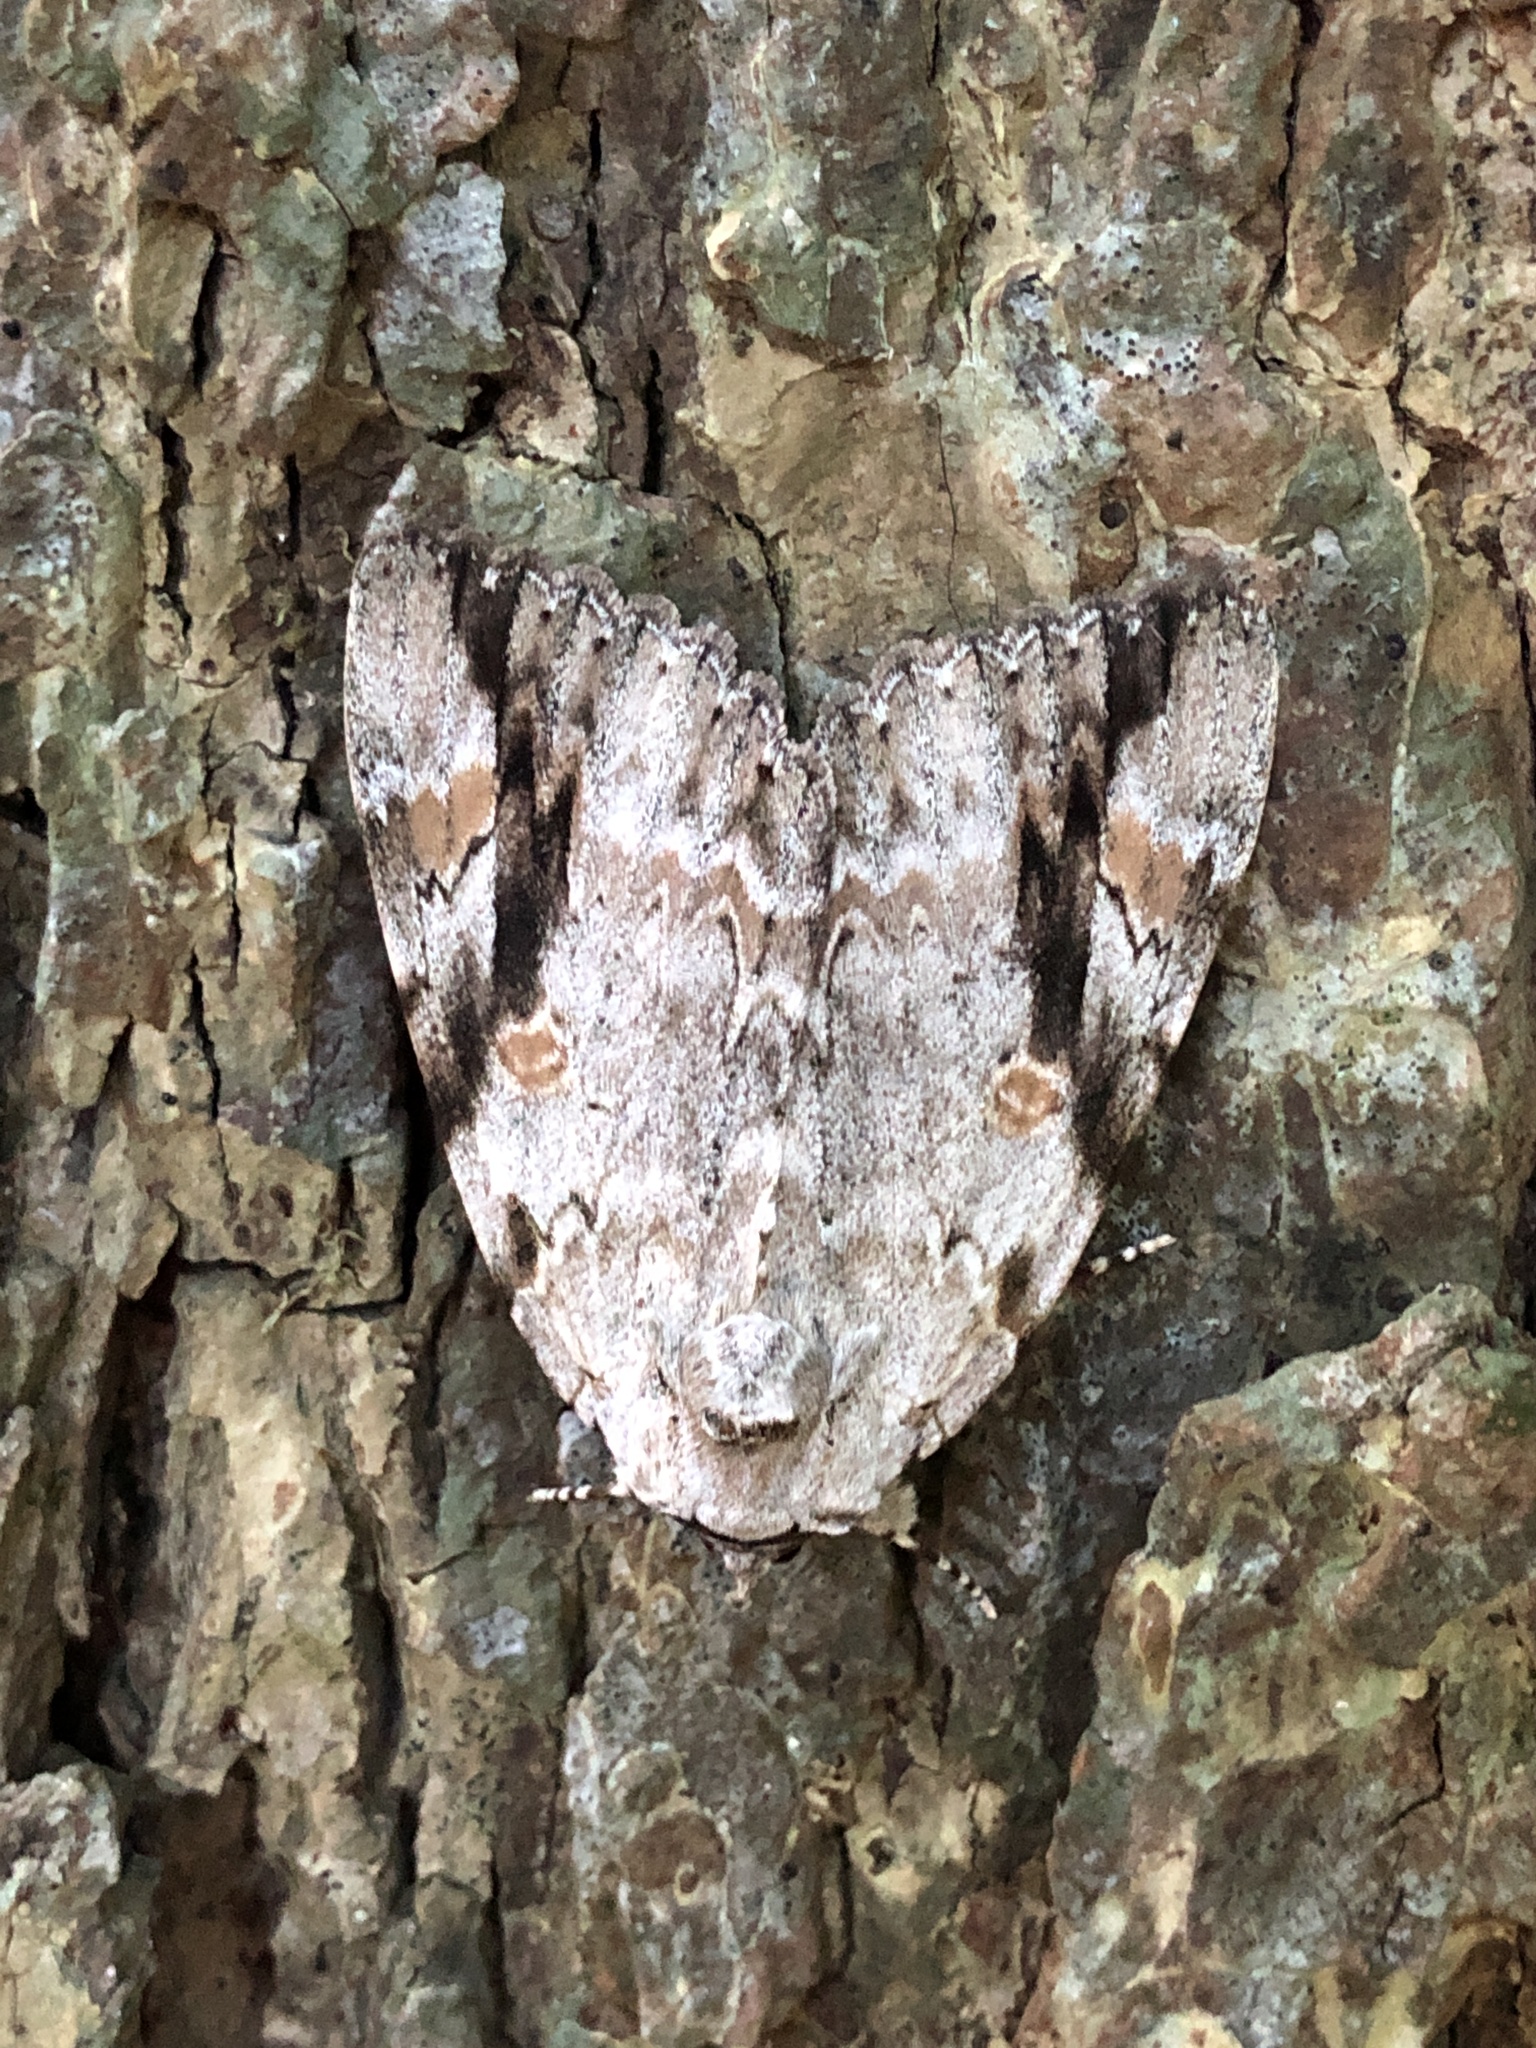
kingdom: Animalia
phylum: Arthropoda
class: Insecta
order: Lepidoptera
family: Erebidae
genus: Catocala
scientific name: Catocala maestosa
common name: Sad underwing
